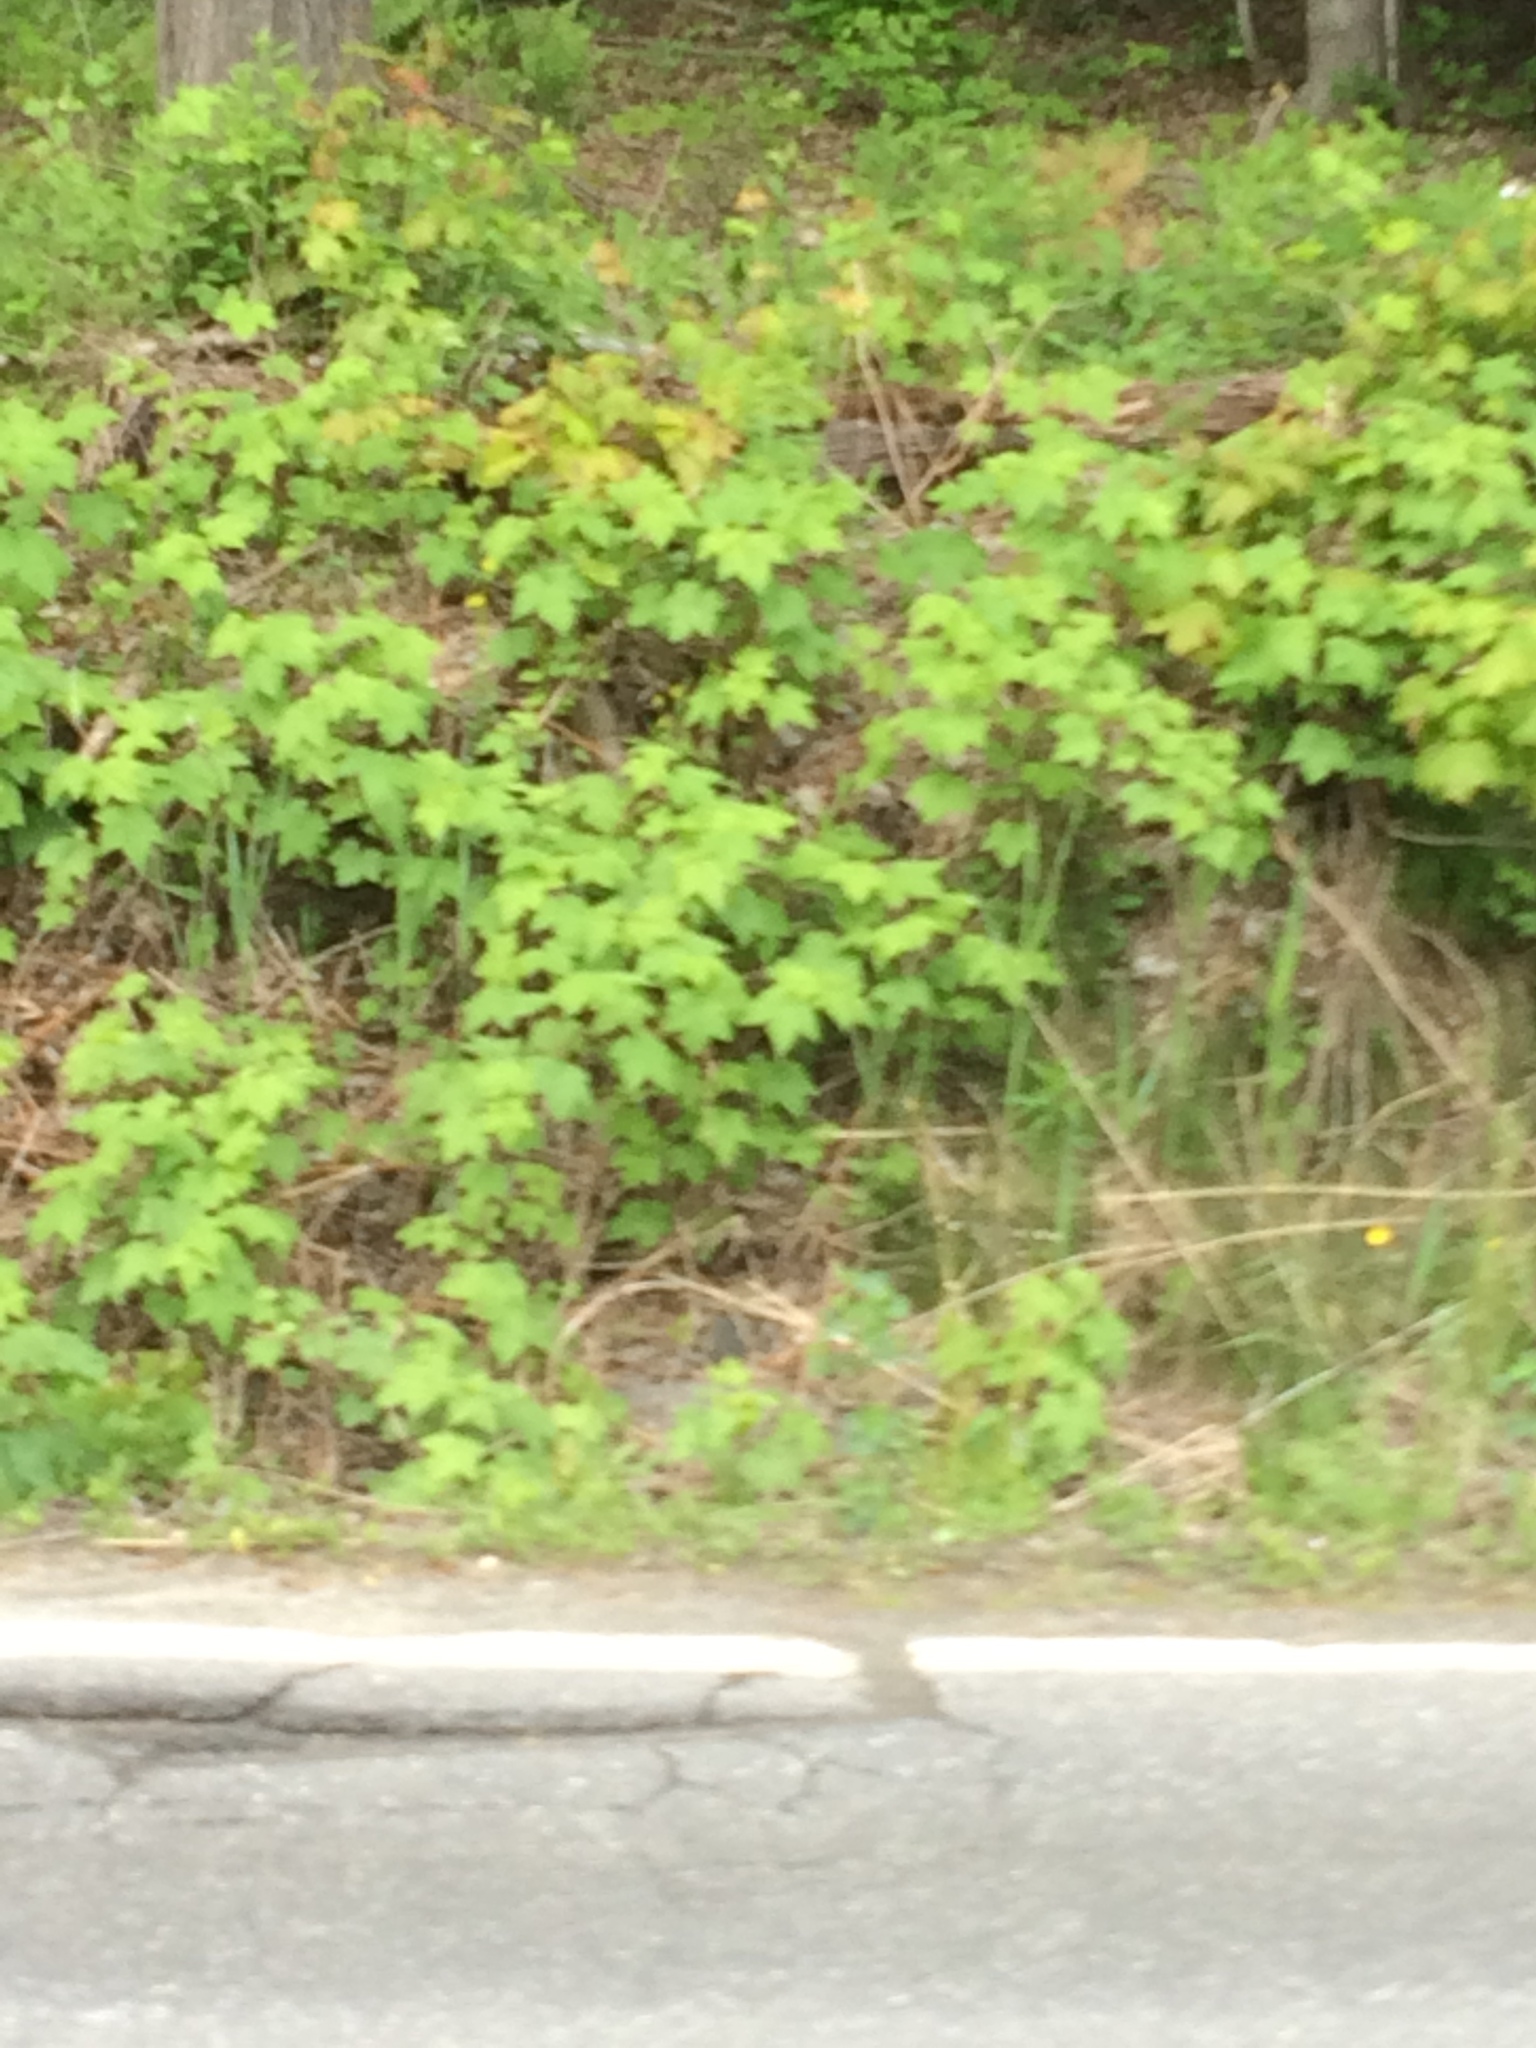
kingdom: Plantae
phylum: Tracheophyta
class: Magnoliopsida
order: Rosales
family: Rosaceae
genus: Rubus
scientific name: Rubus odoratus
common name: Purple-flowered raspberry
